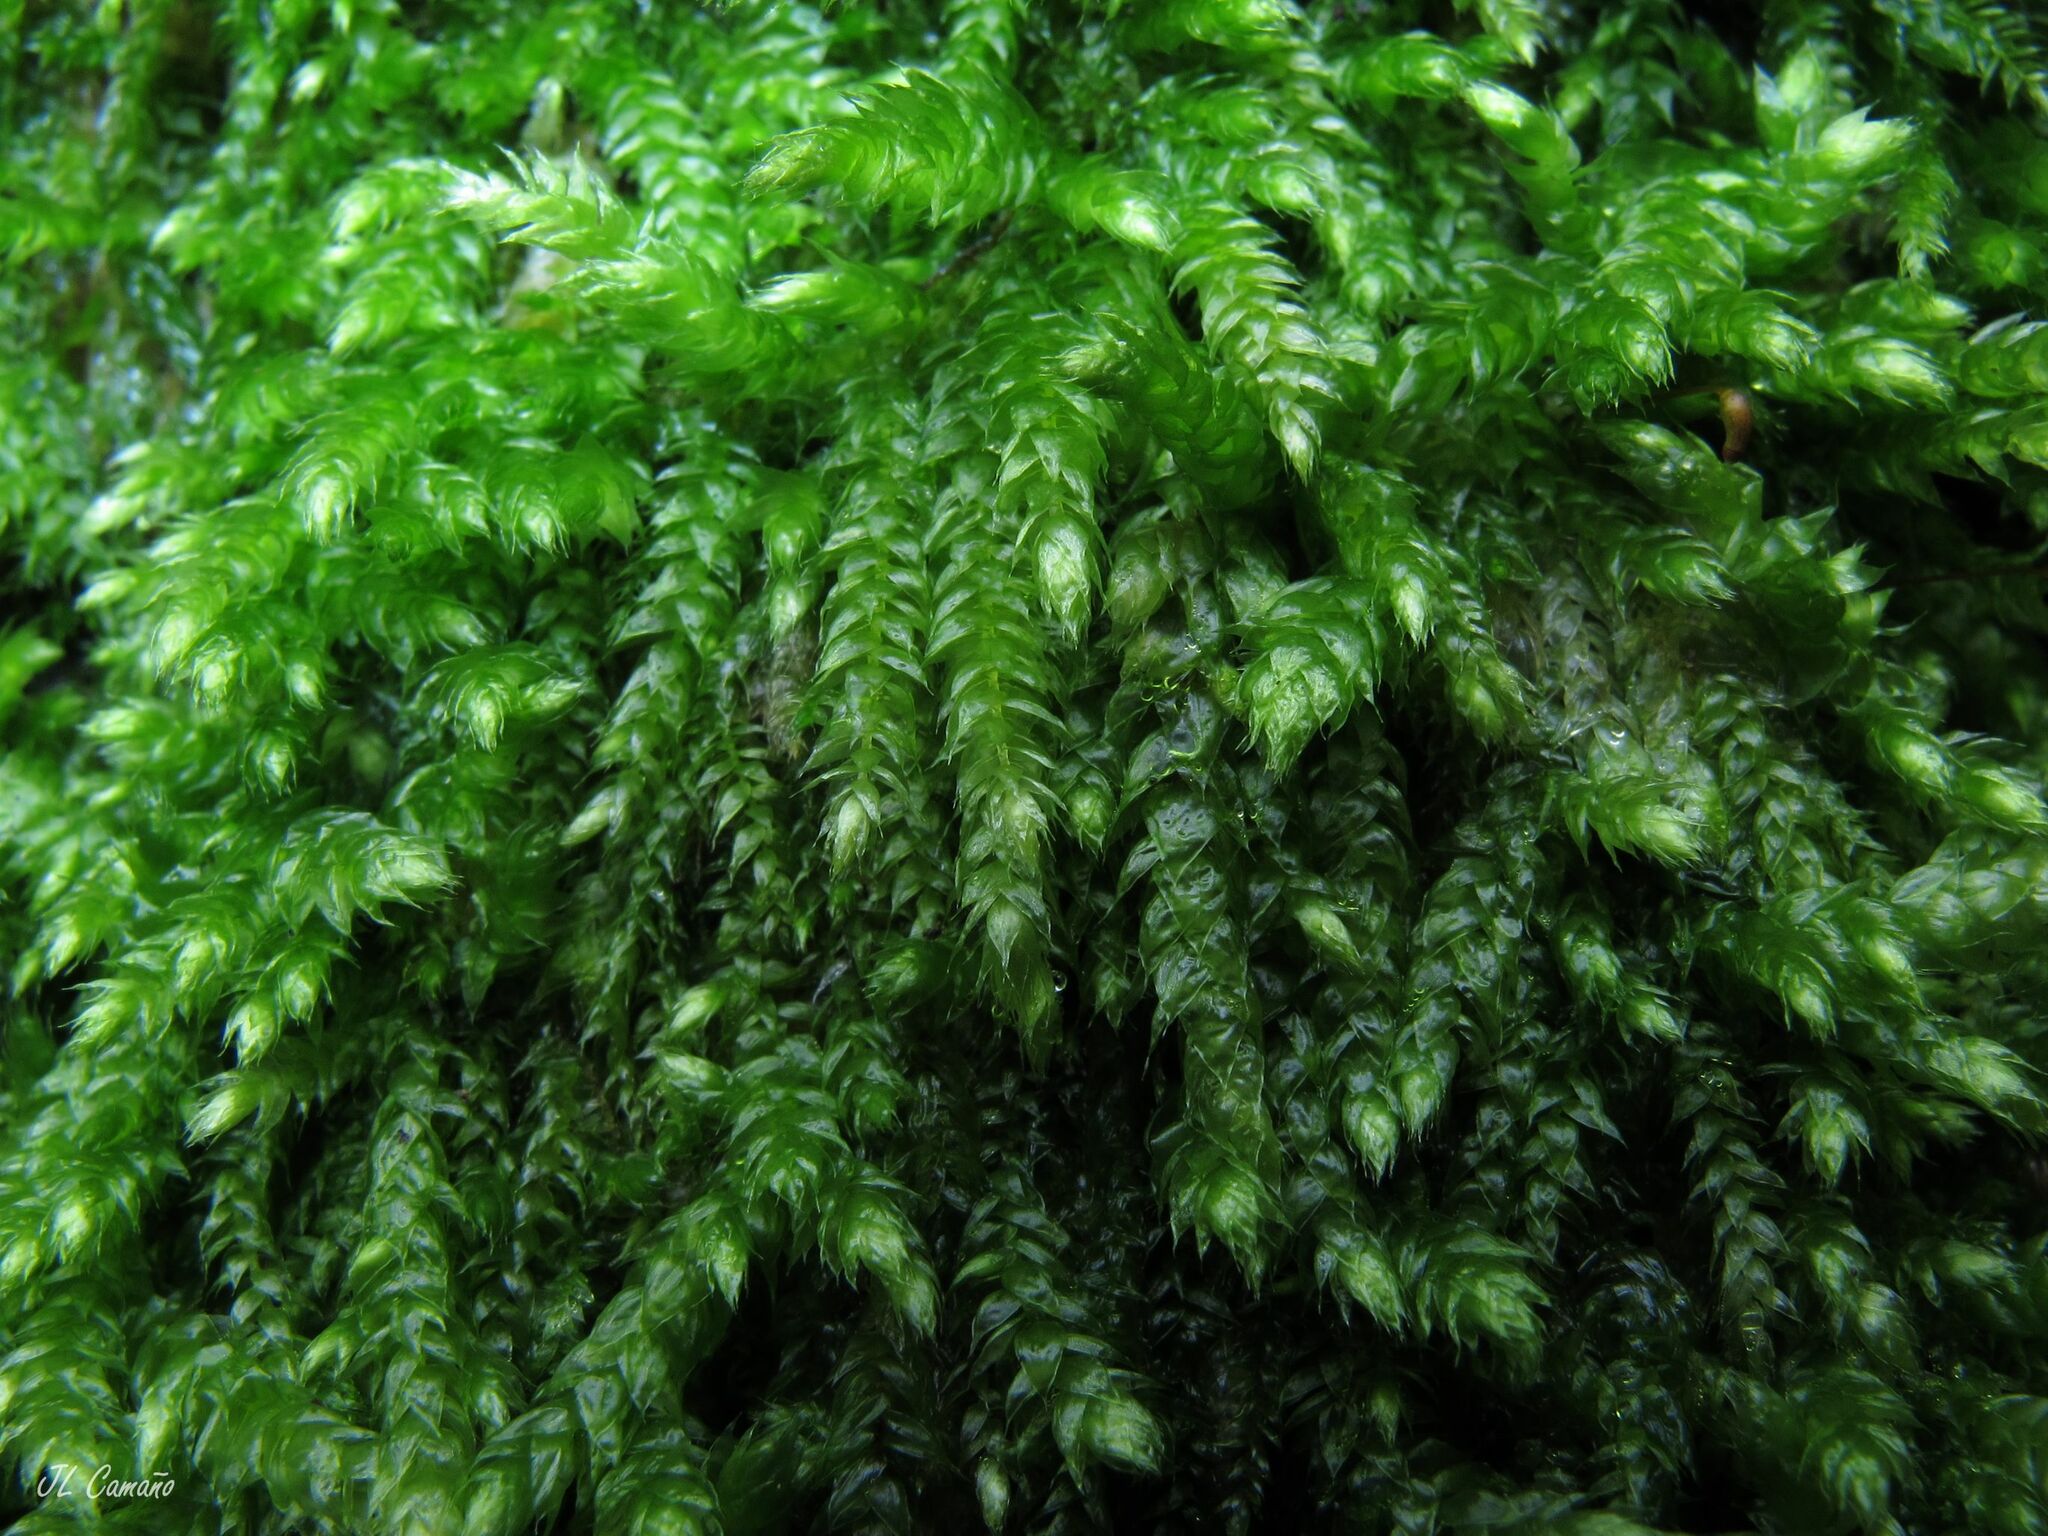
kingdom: Plantae
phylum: Bryophyta
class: Bryopsida
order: Hypnales
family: Brachytheciaceae
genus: Brachythecium
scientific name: Brachythecium rutabulum
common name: Rough-stalked feather-moss
